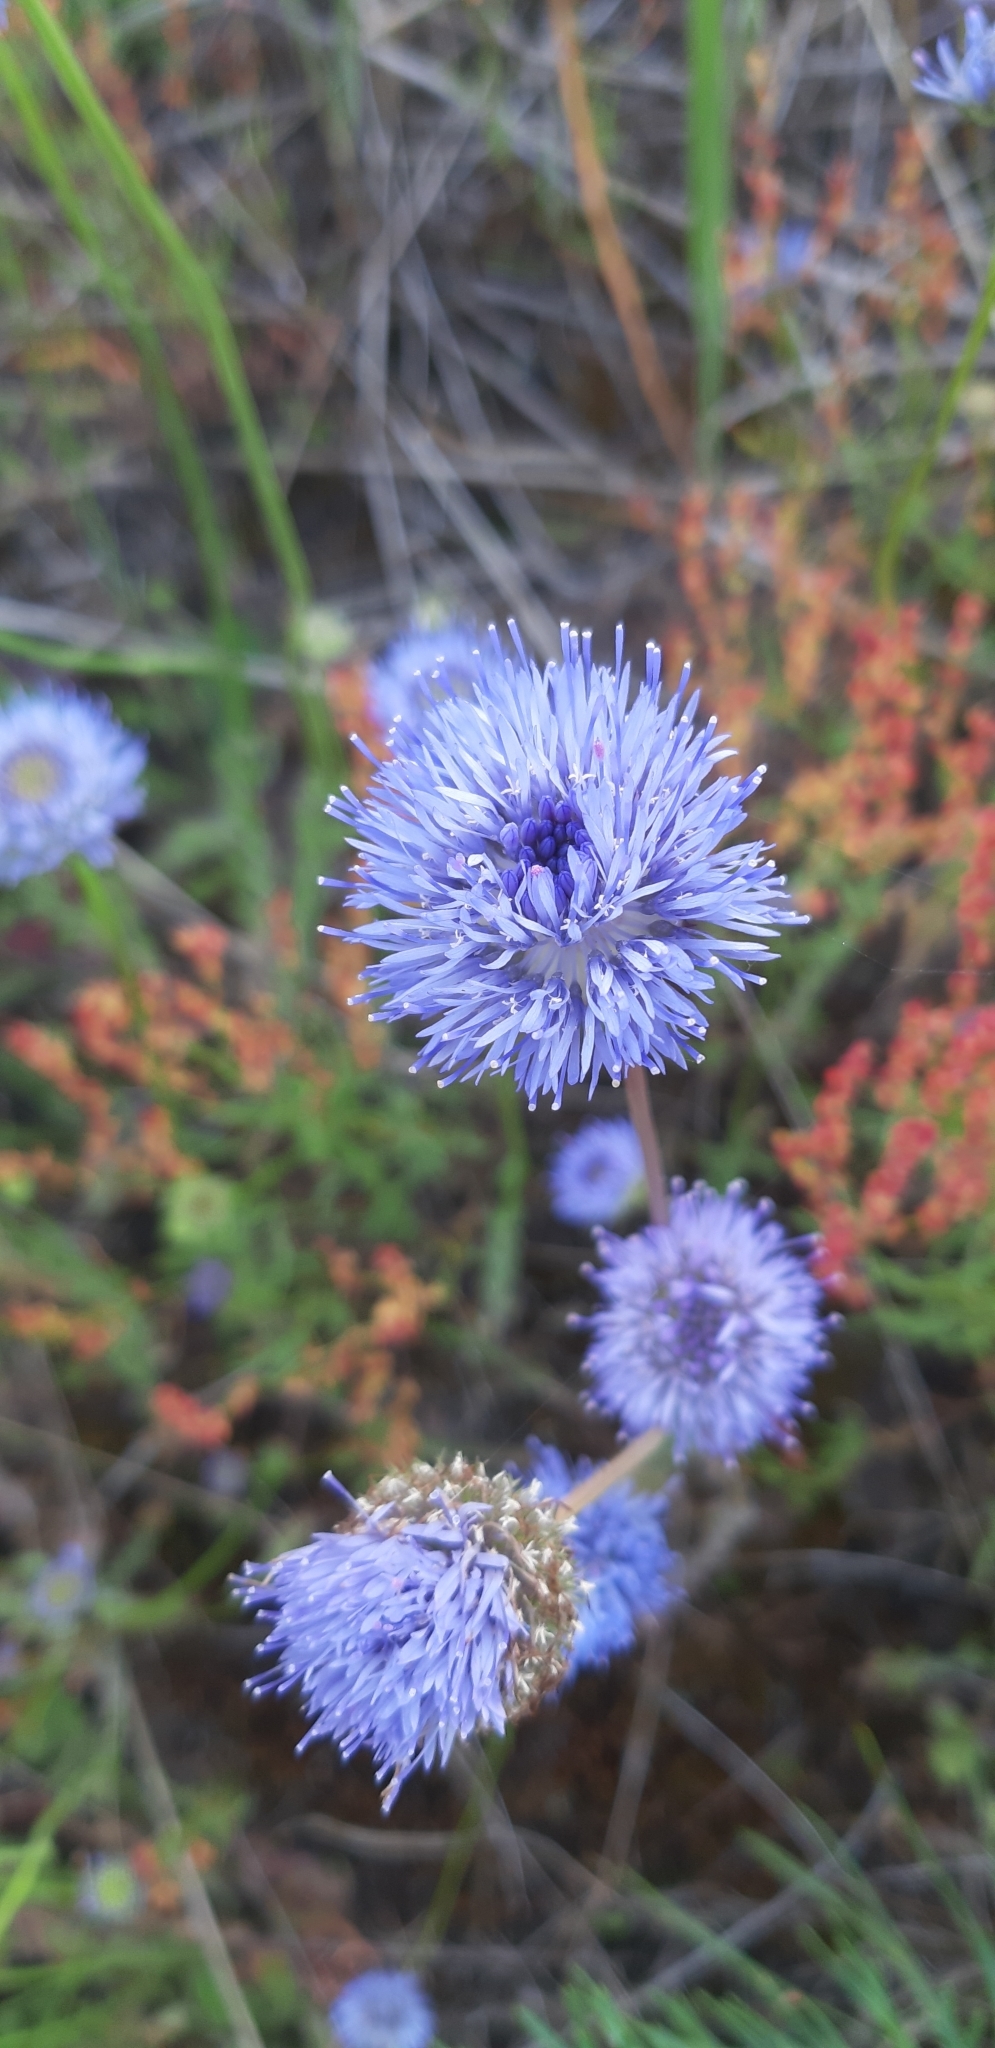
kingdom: Plantae
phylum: Tracheophyta
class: Magnoliopsida
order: Asterales
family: Campanulaceae
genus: Jasione
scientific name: Jasione montana
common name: Sheep's-bit
